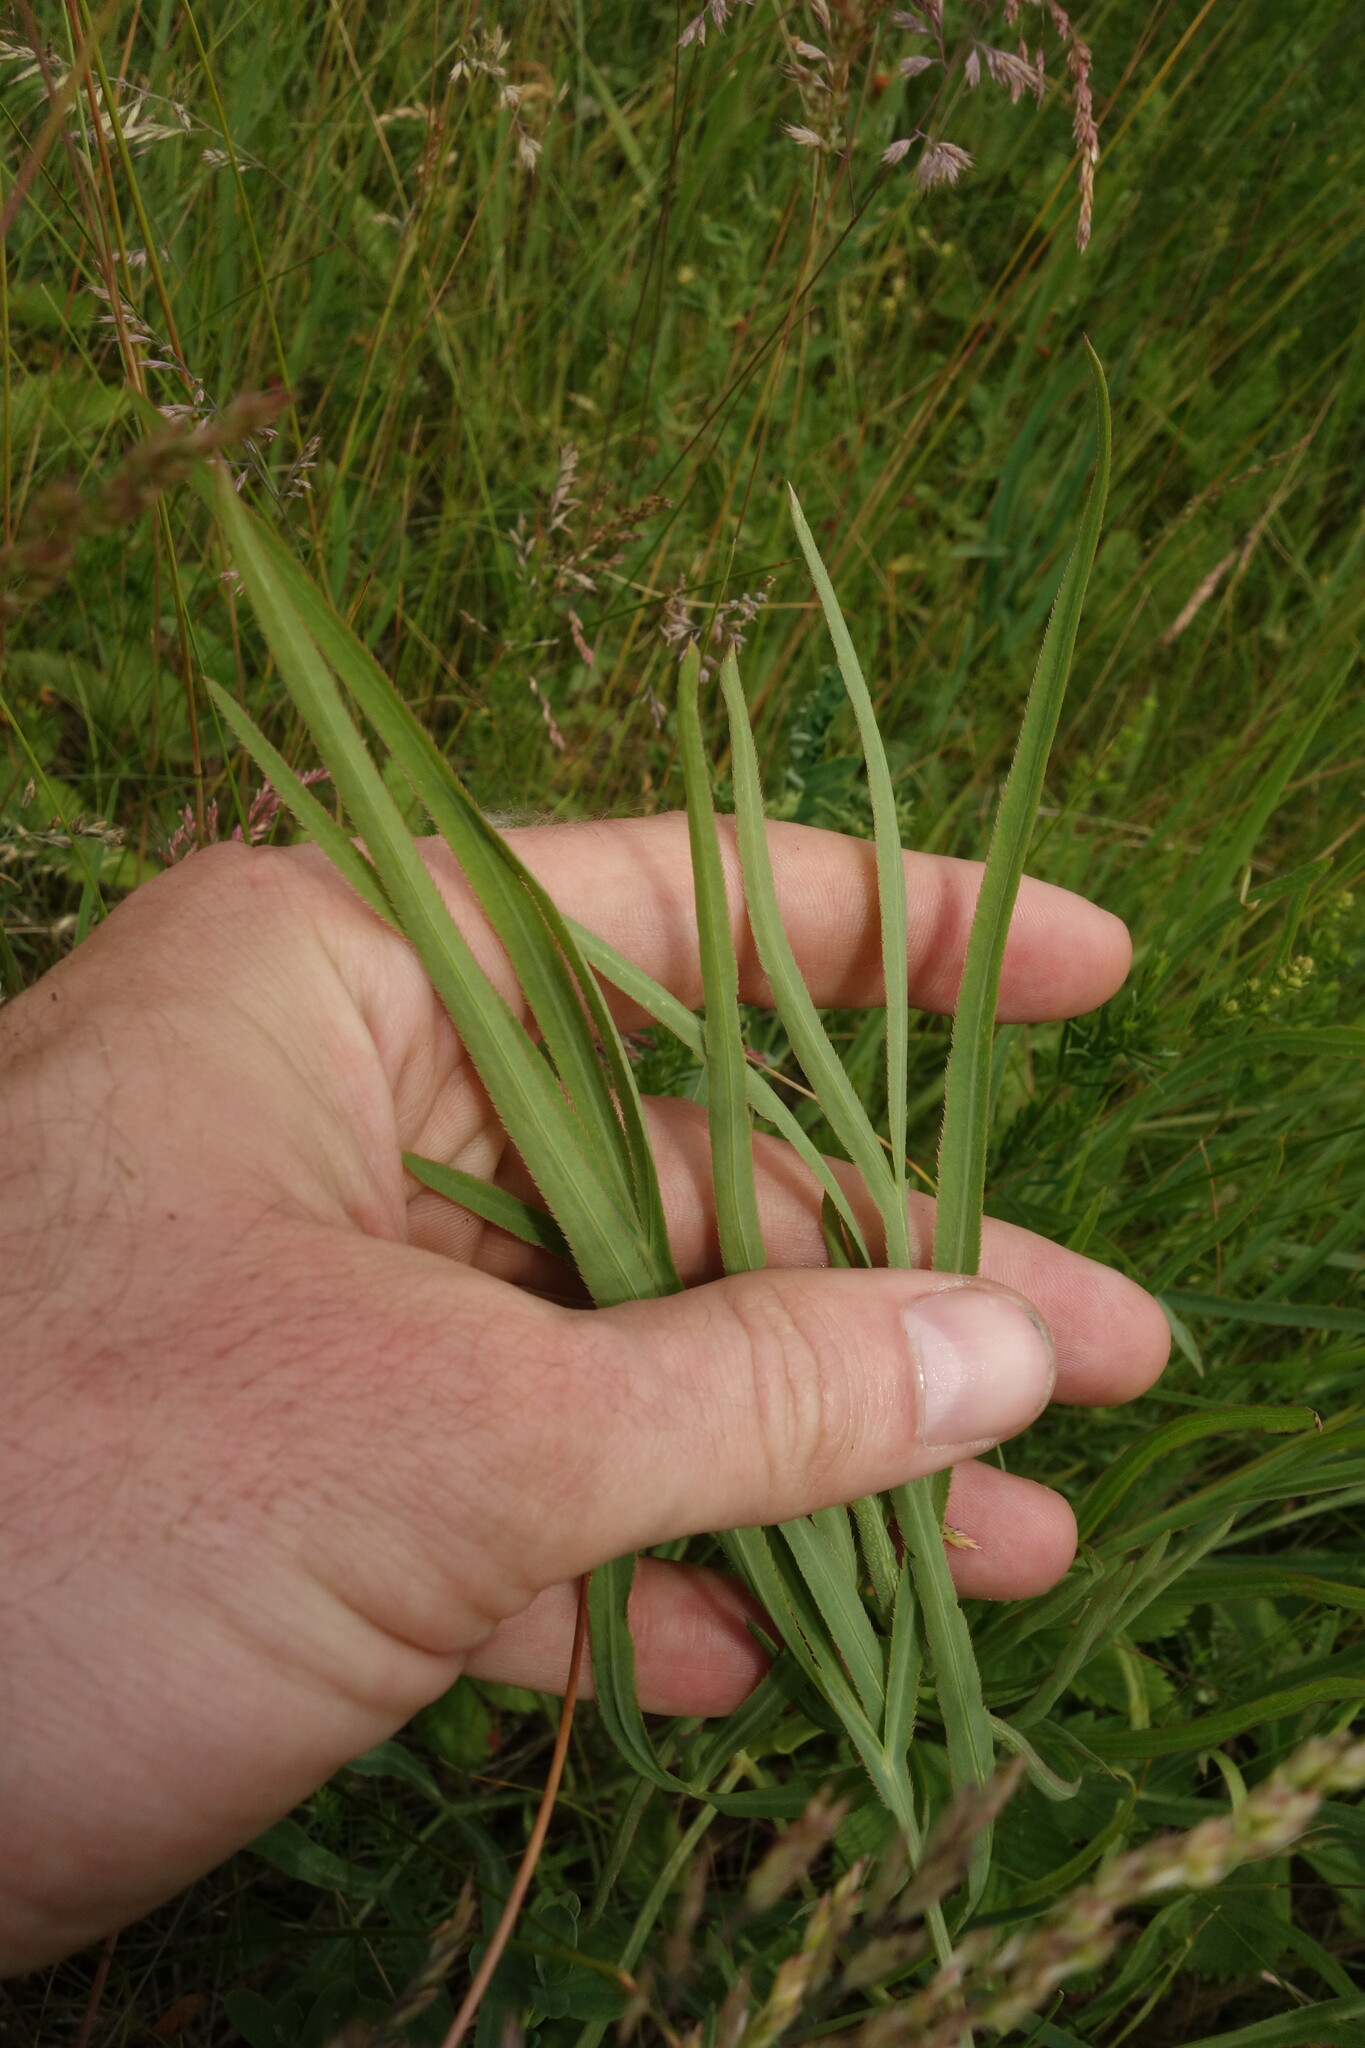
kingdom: Plantae
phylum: Tracheophyta
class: Magnoliopsida
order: Apiales
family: Apiaceae
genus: Falcaria
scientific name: Falcaria vulgaris
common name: Longleaf
